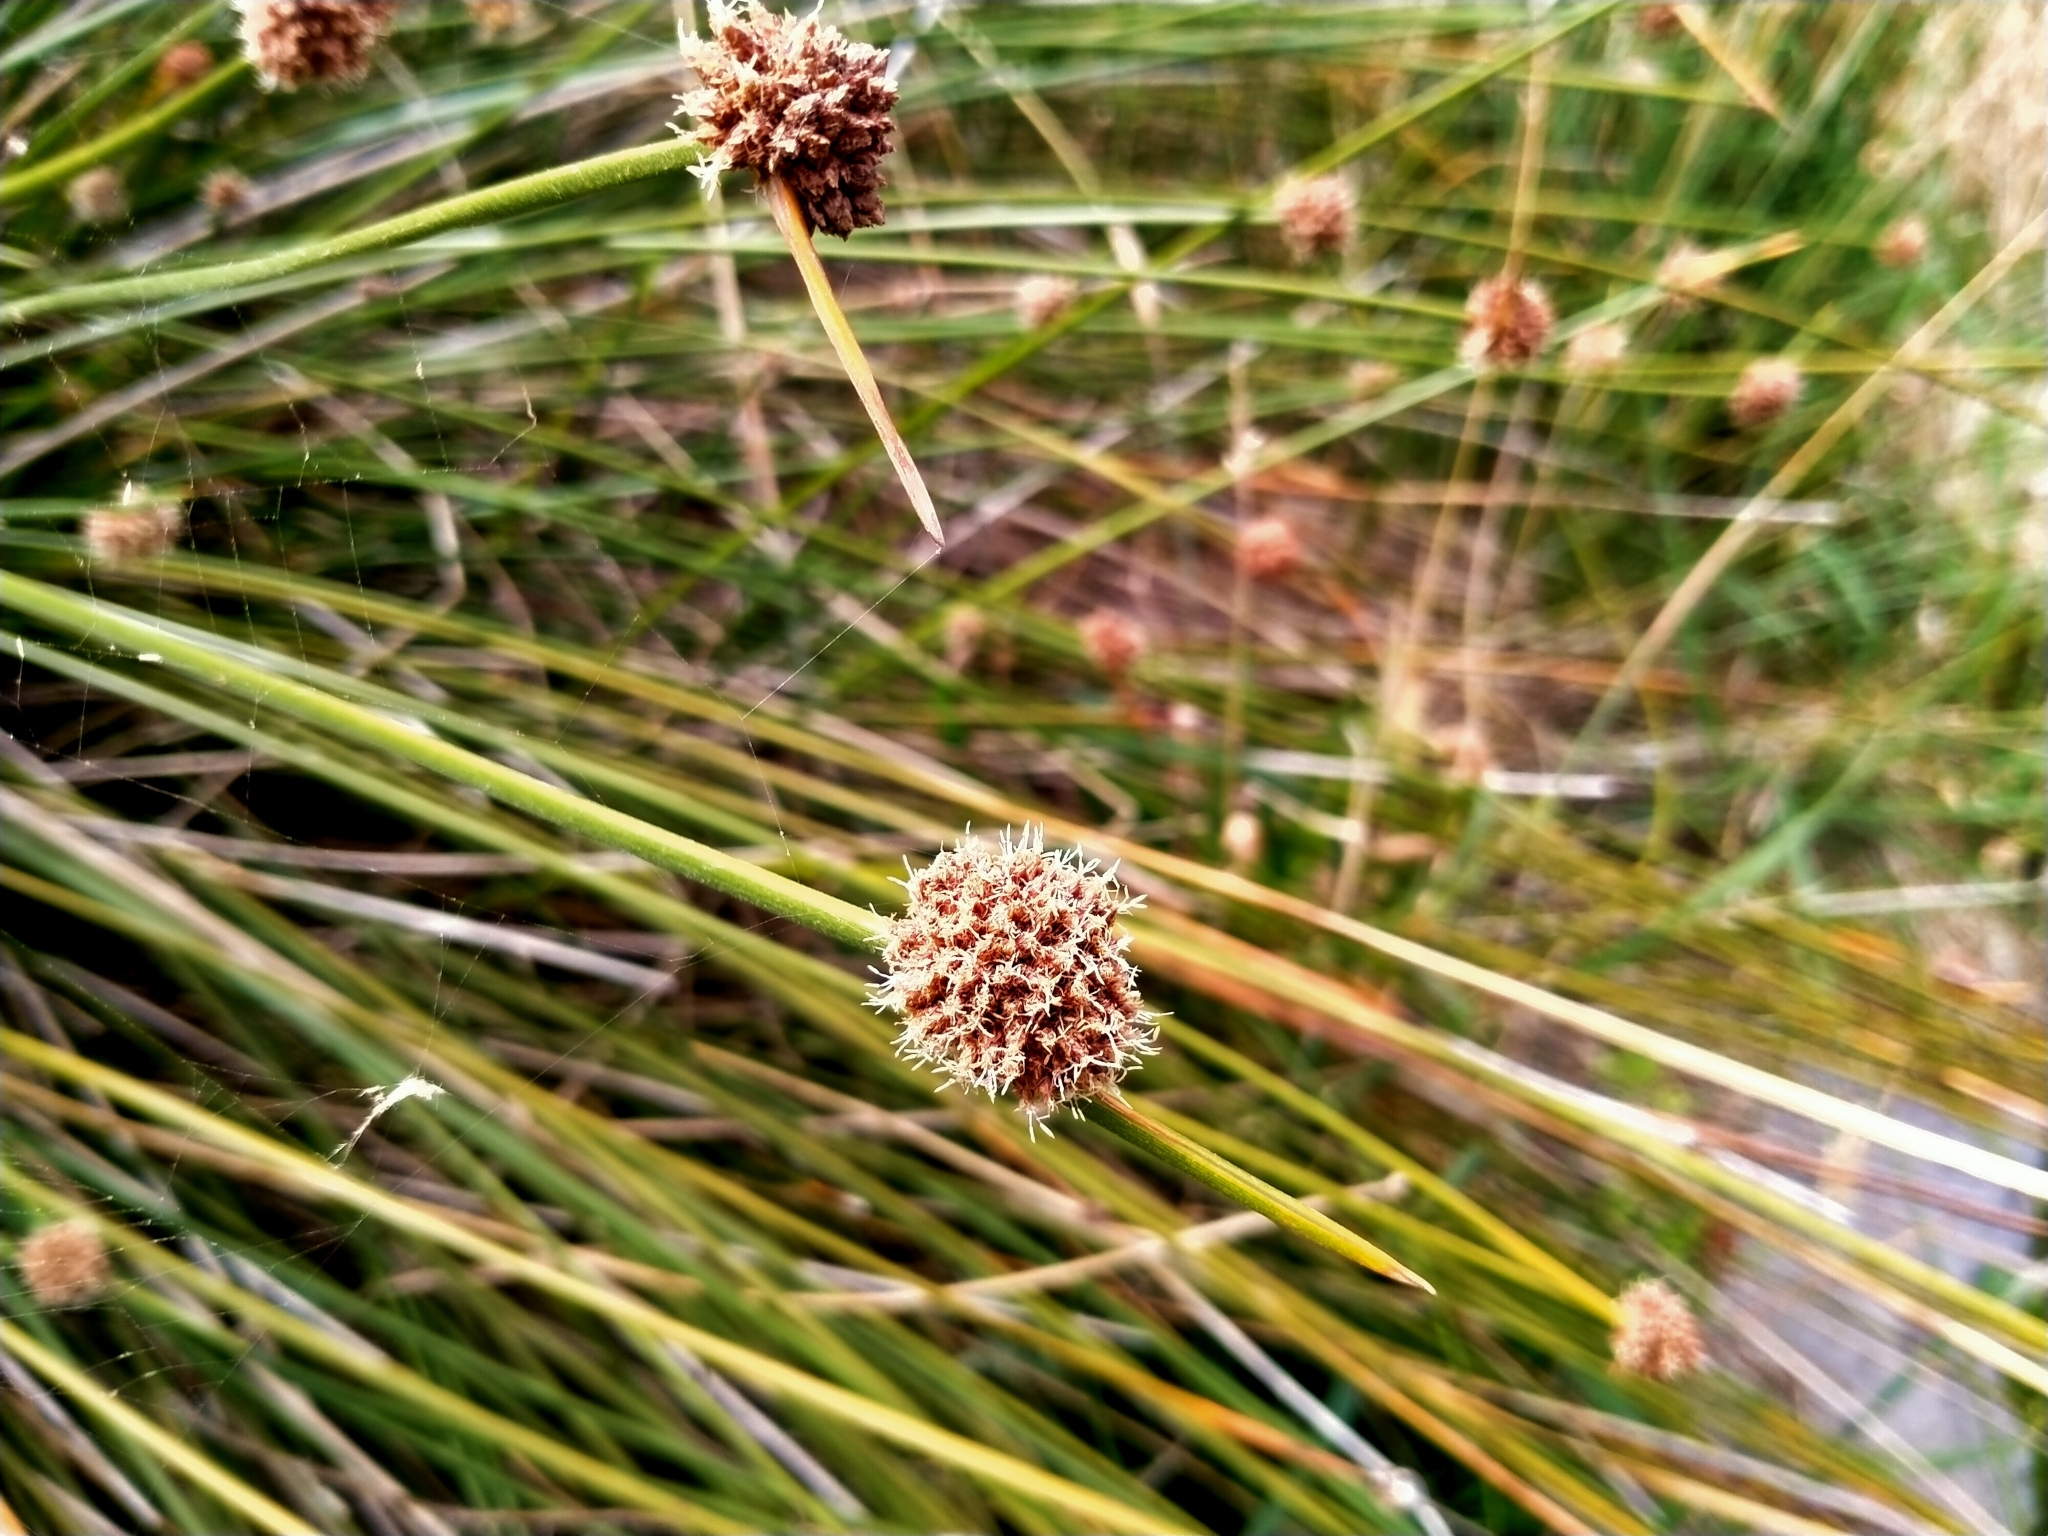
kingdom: Plantae
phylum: Tracheophyta
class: Liliopsida
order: Poales
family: Cyperaceae
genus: Ficinia
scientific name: Ficinia nodosa
